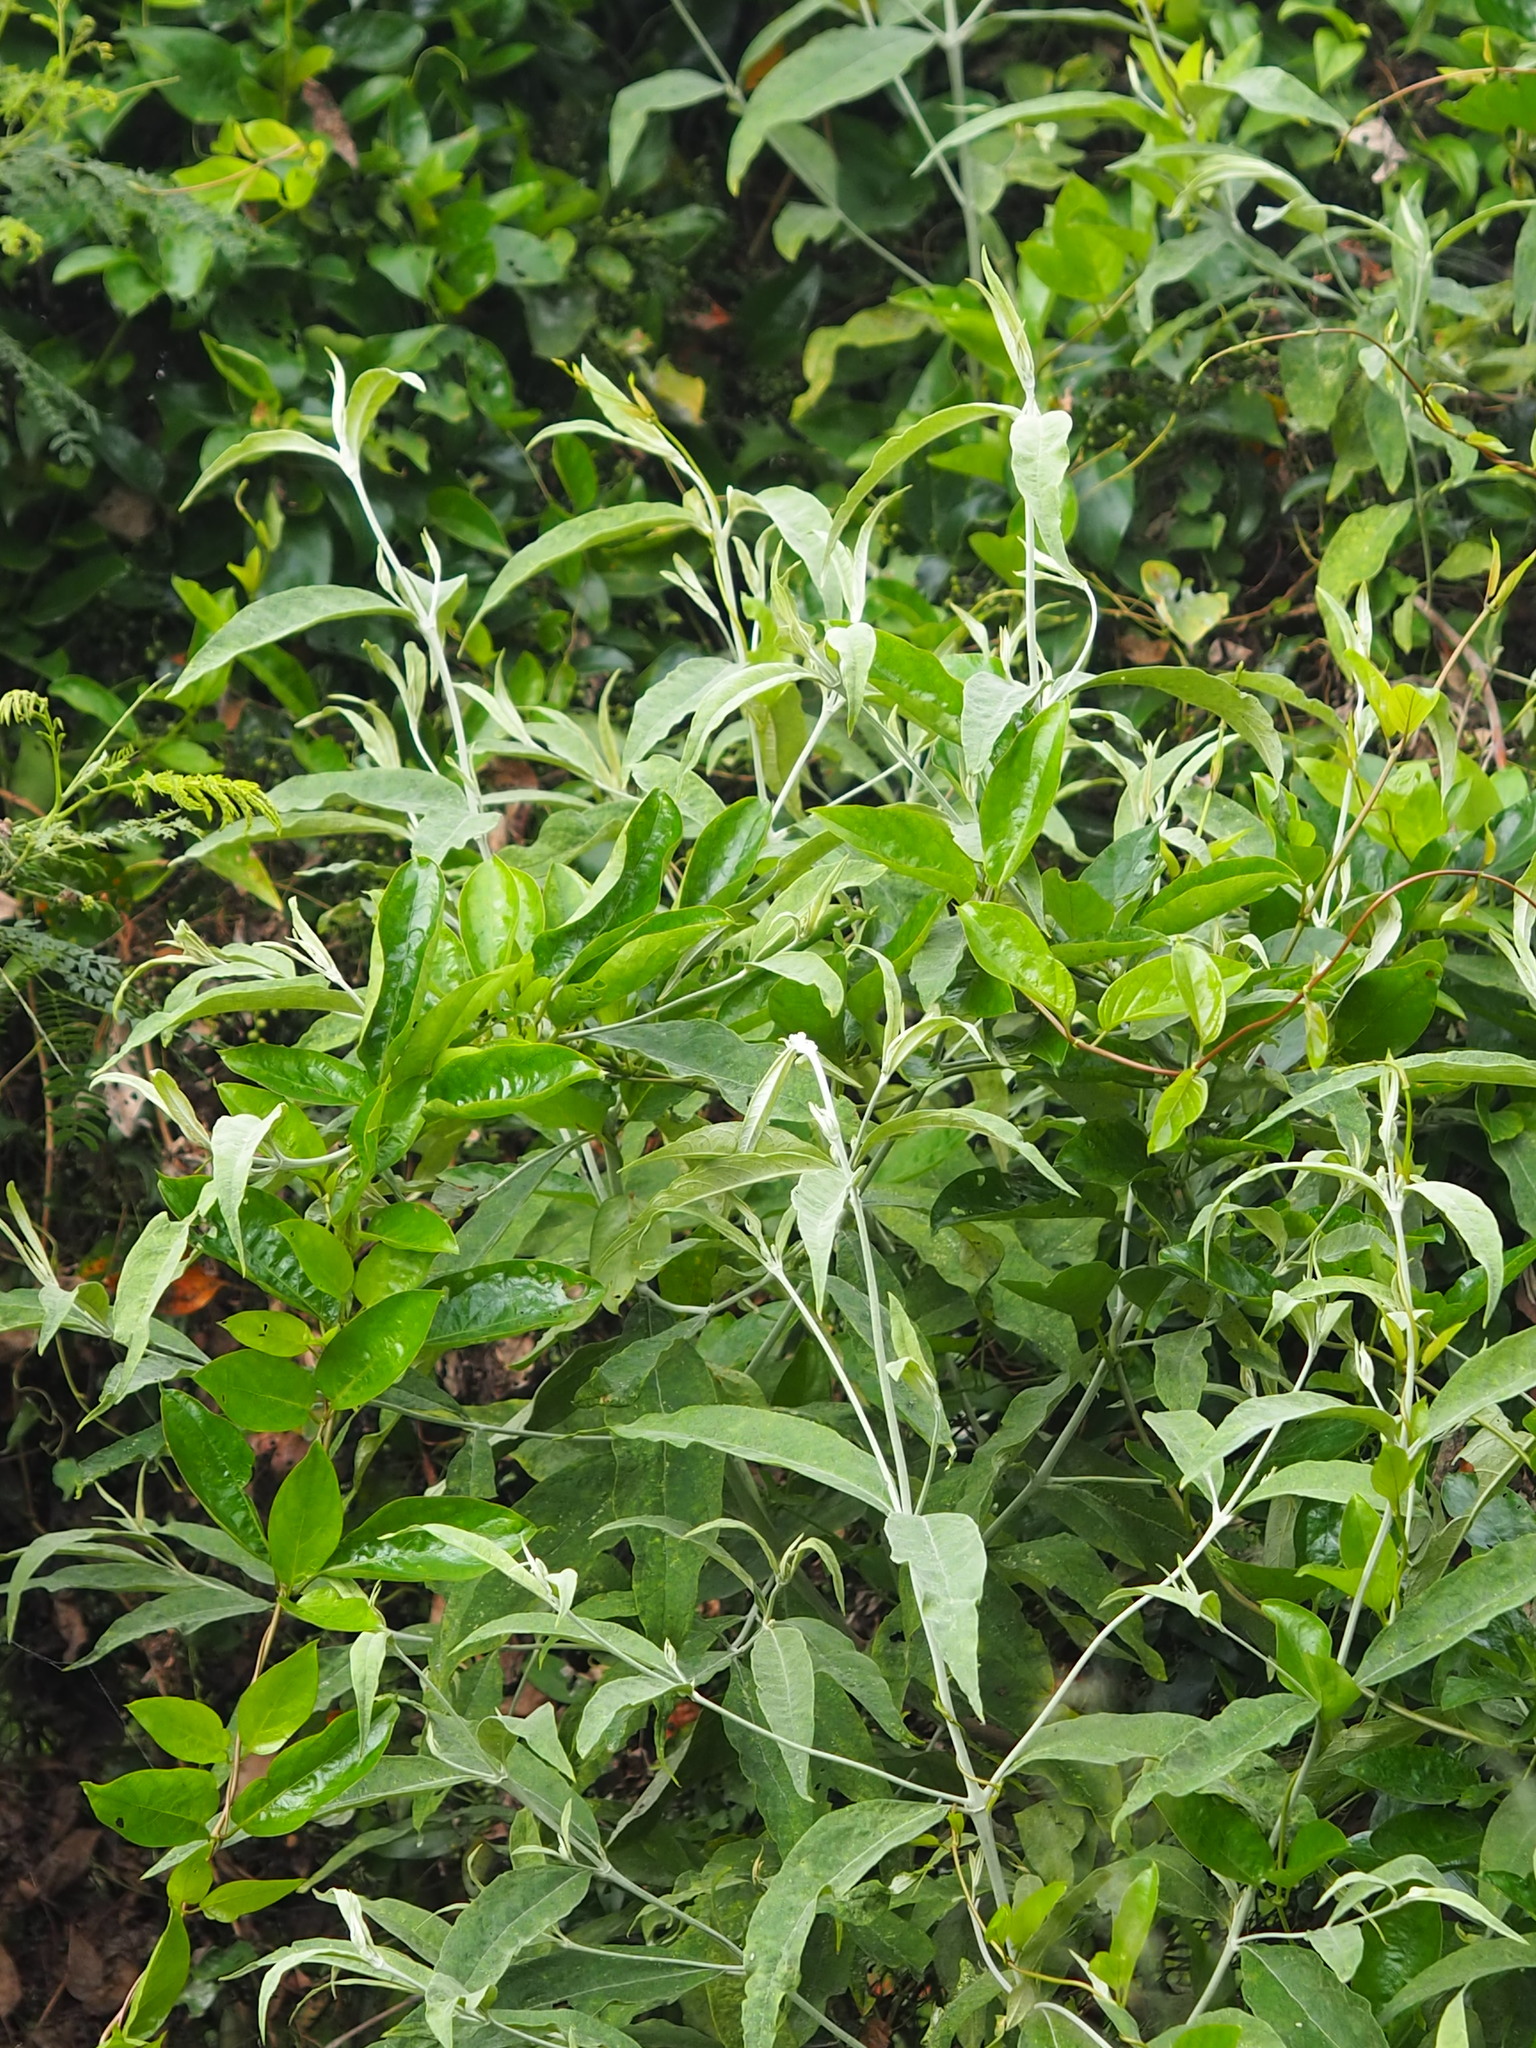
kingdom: Plantae
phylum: Tracheophyta
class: Magnoliopsida
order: Lamiales
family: Scrophulariaceae
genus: Buddleja
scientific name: Buddleja asiatica
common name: Dog tail
